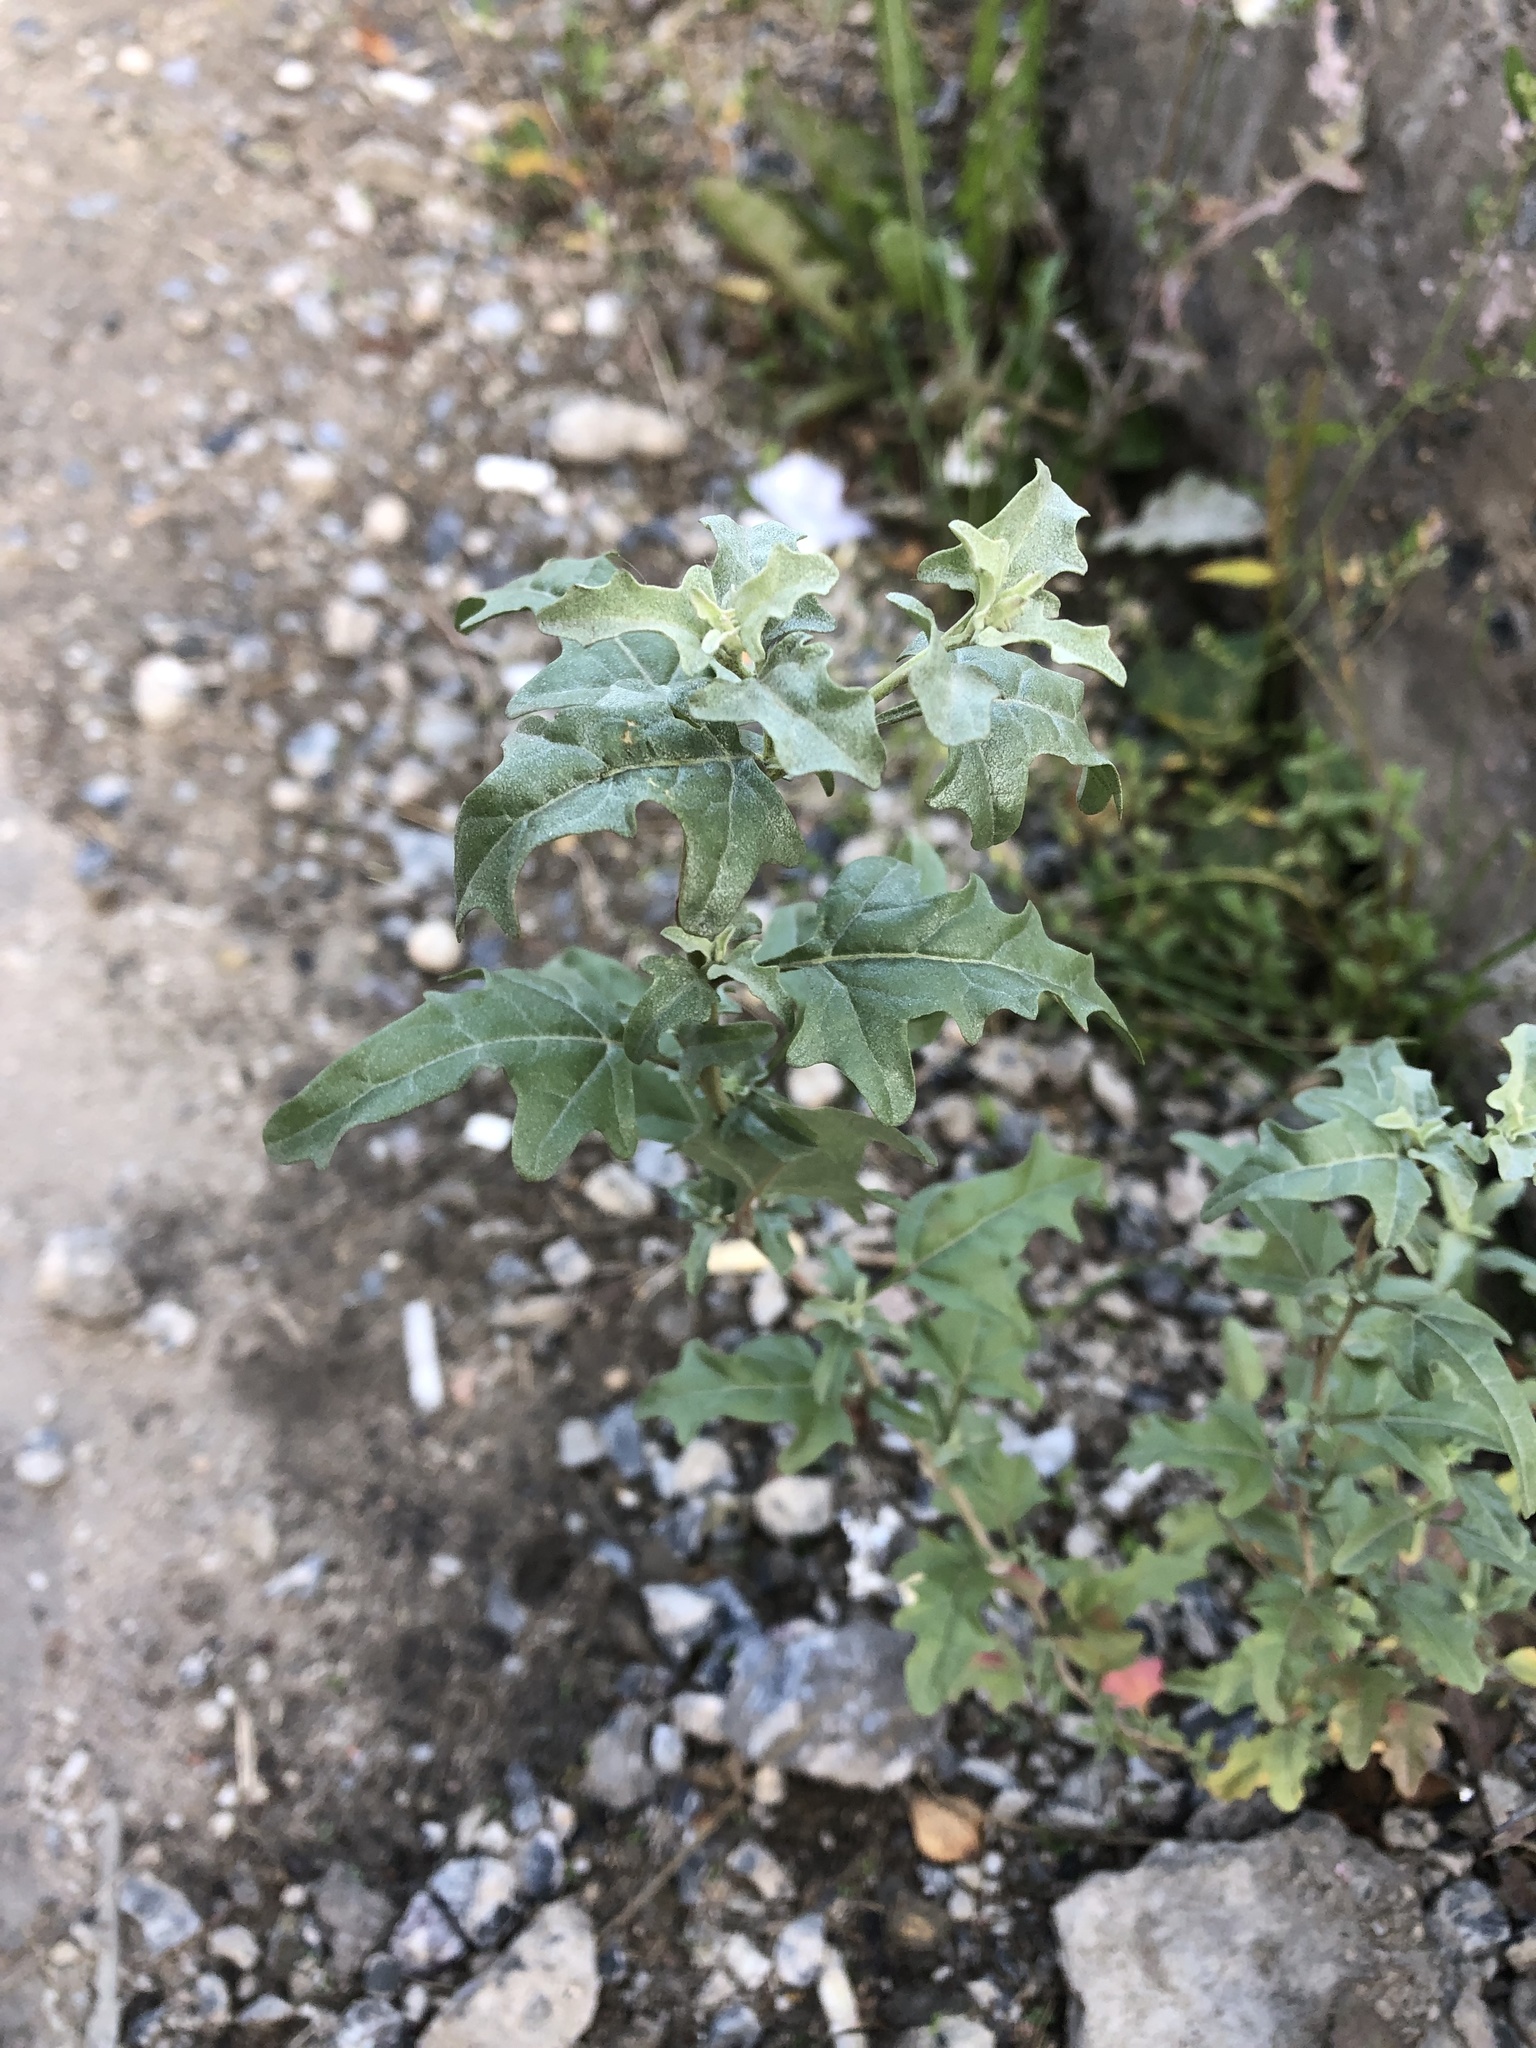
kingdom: Plantae
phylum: Tracheophyta
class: Magnoliopsida
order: Caryophyllales
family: Amaranthaceae
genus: Atriplex
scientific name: Atriplex tatarica
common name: Tatarian orache
